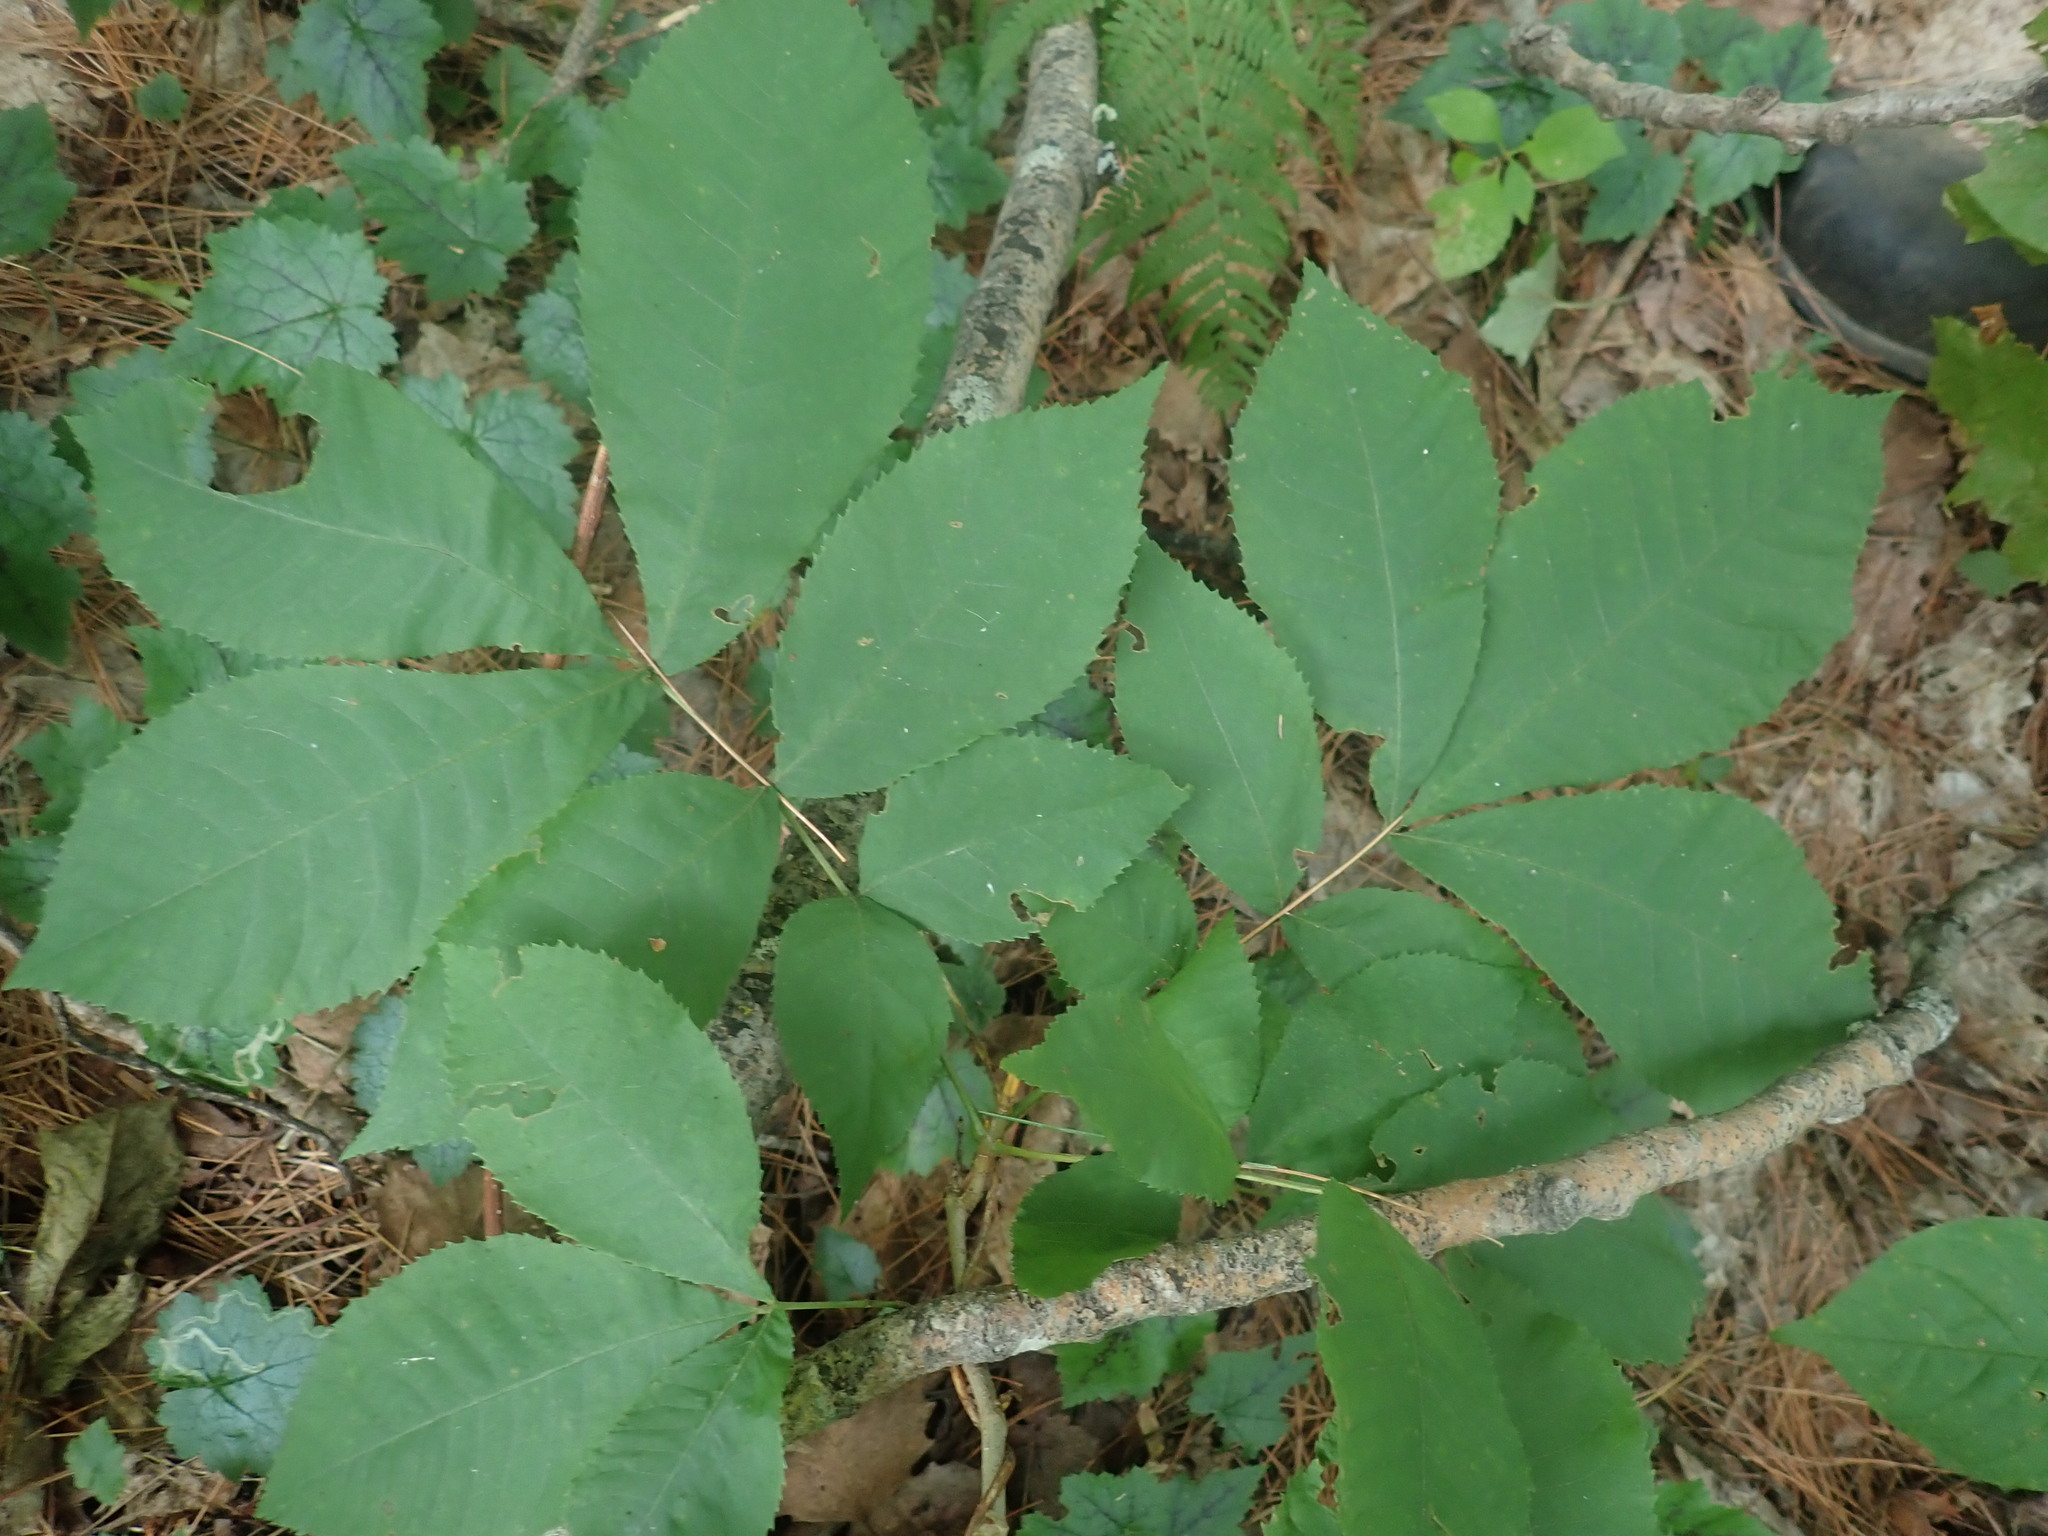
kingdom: Plantae
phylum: Tracheophyta
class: Magnoliopsida
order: Fagales
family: Juglandaceae
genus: Carya
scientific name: Carya cordiformis
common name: Bitternut hickory
